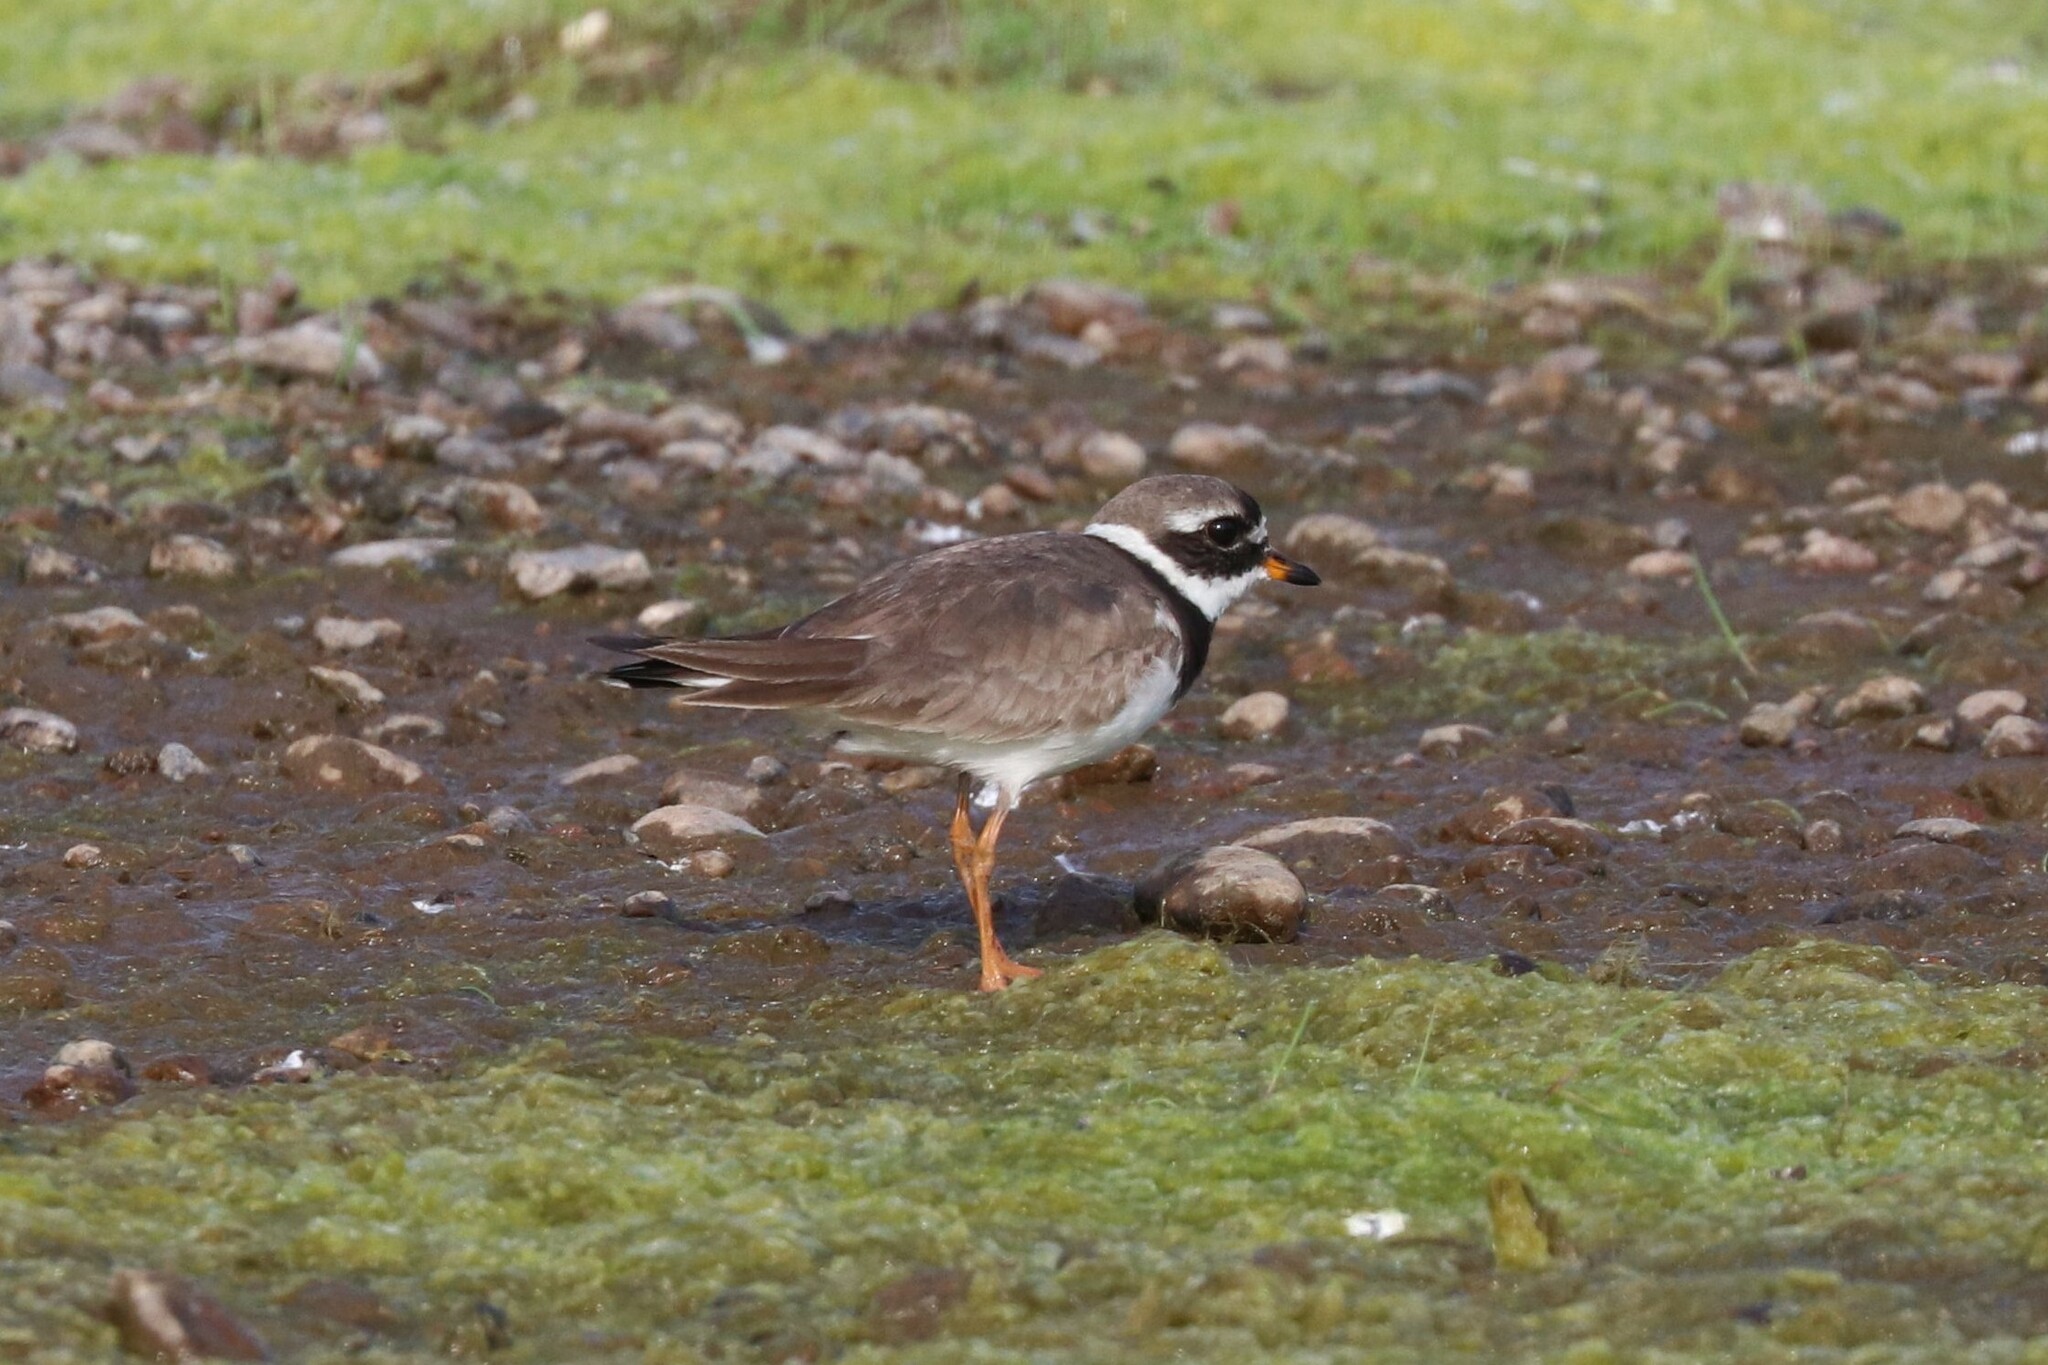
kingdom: Animalia
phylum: Chordata
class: Aves
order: Charadriiformes
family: Charadriidae
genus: Charadrius
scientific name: Charadrius hiaticula
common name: Common ringed plover
